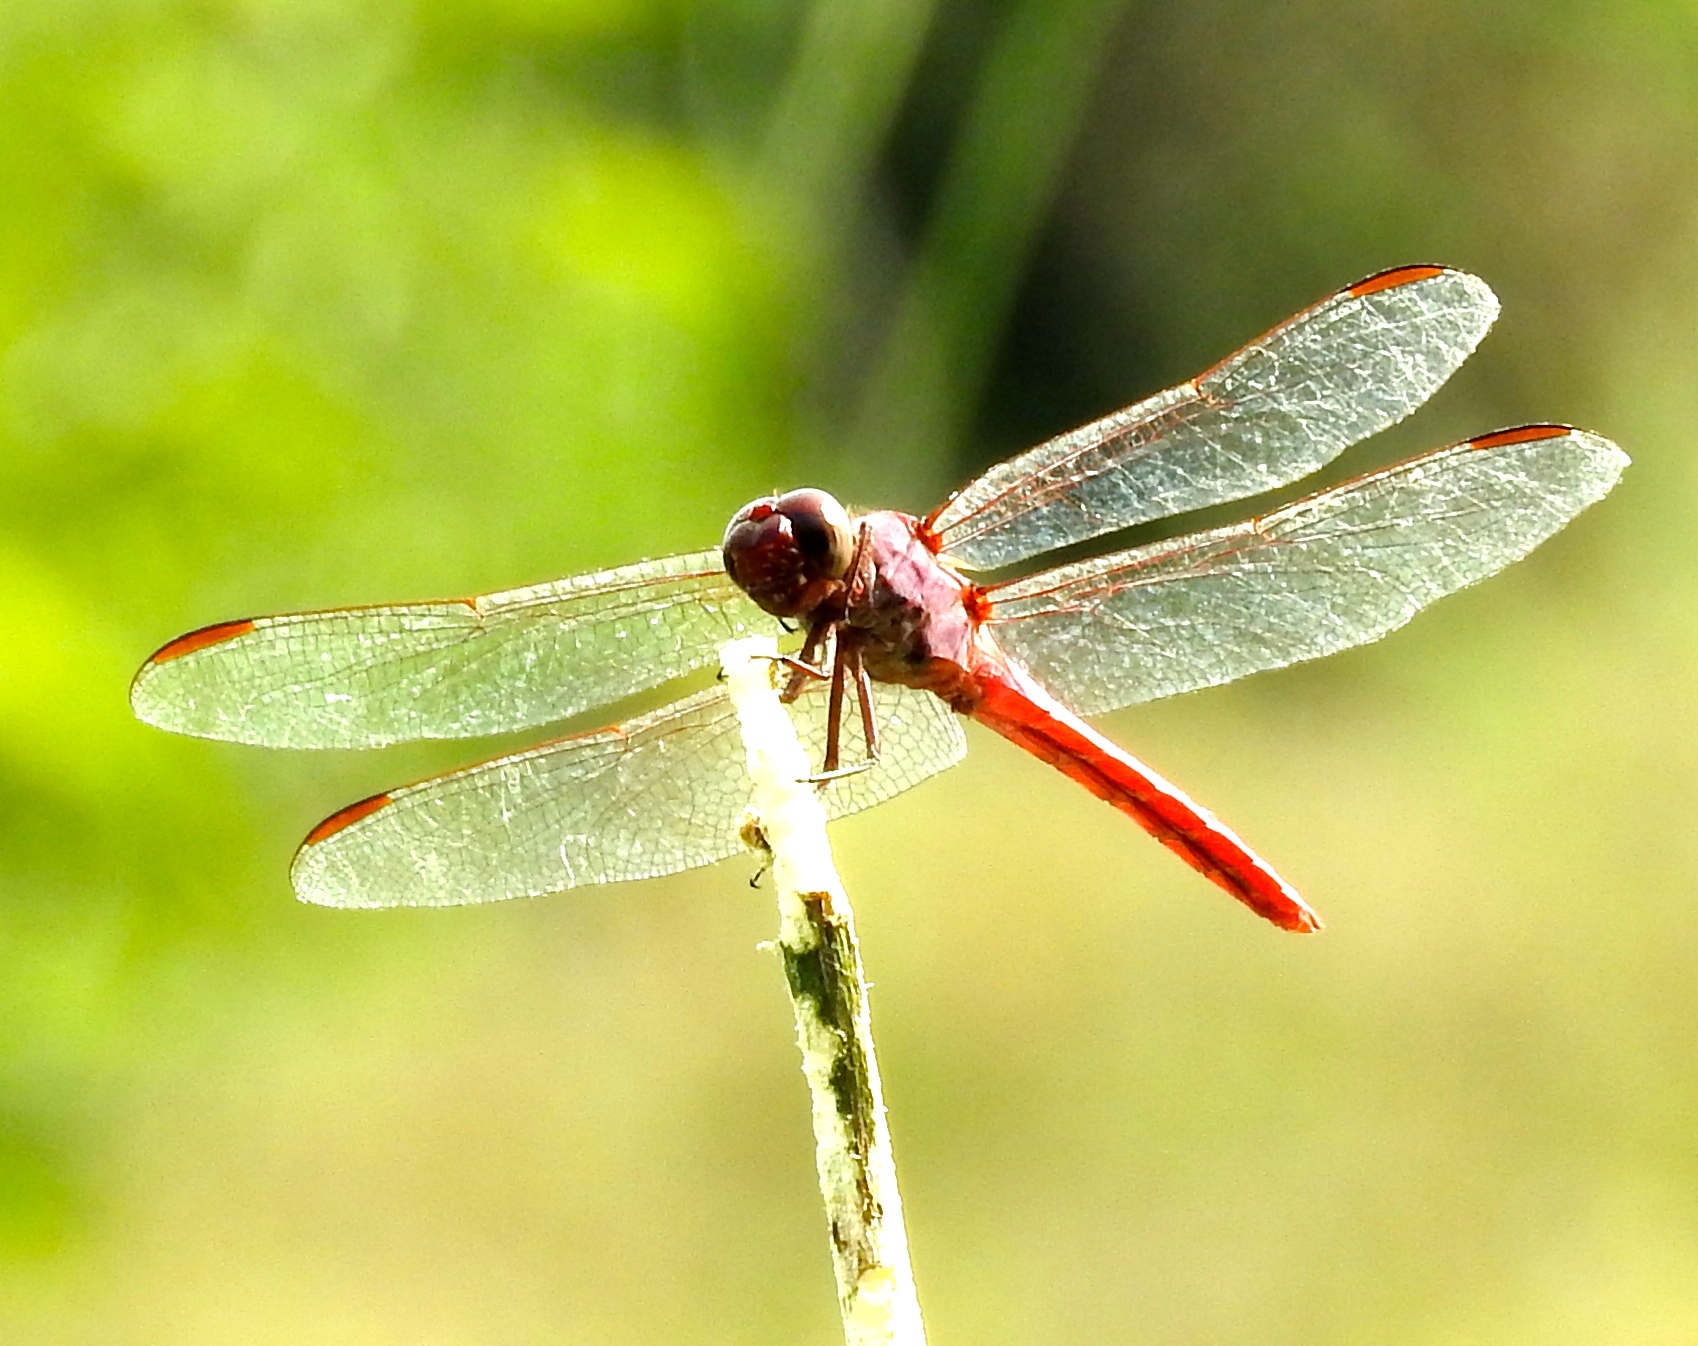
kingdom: Animalia
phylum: Arthropoda
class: Insecta
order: Odonata
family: Libellulidae
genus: Orthemis
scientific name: Orthemis ferruginea
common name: Roseate skimmer
